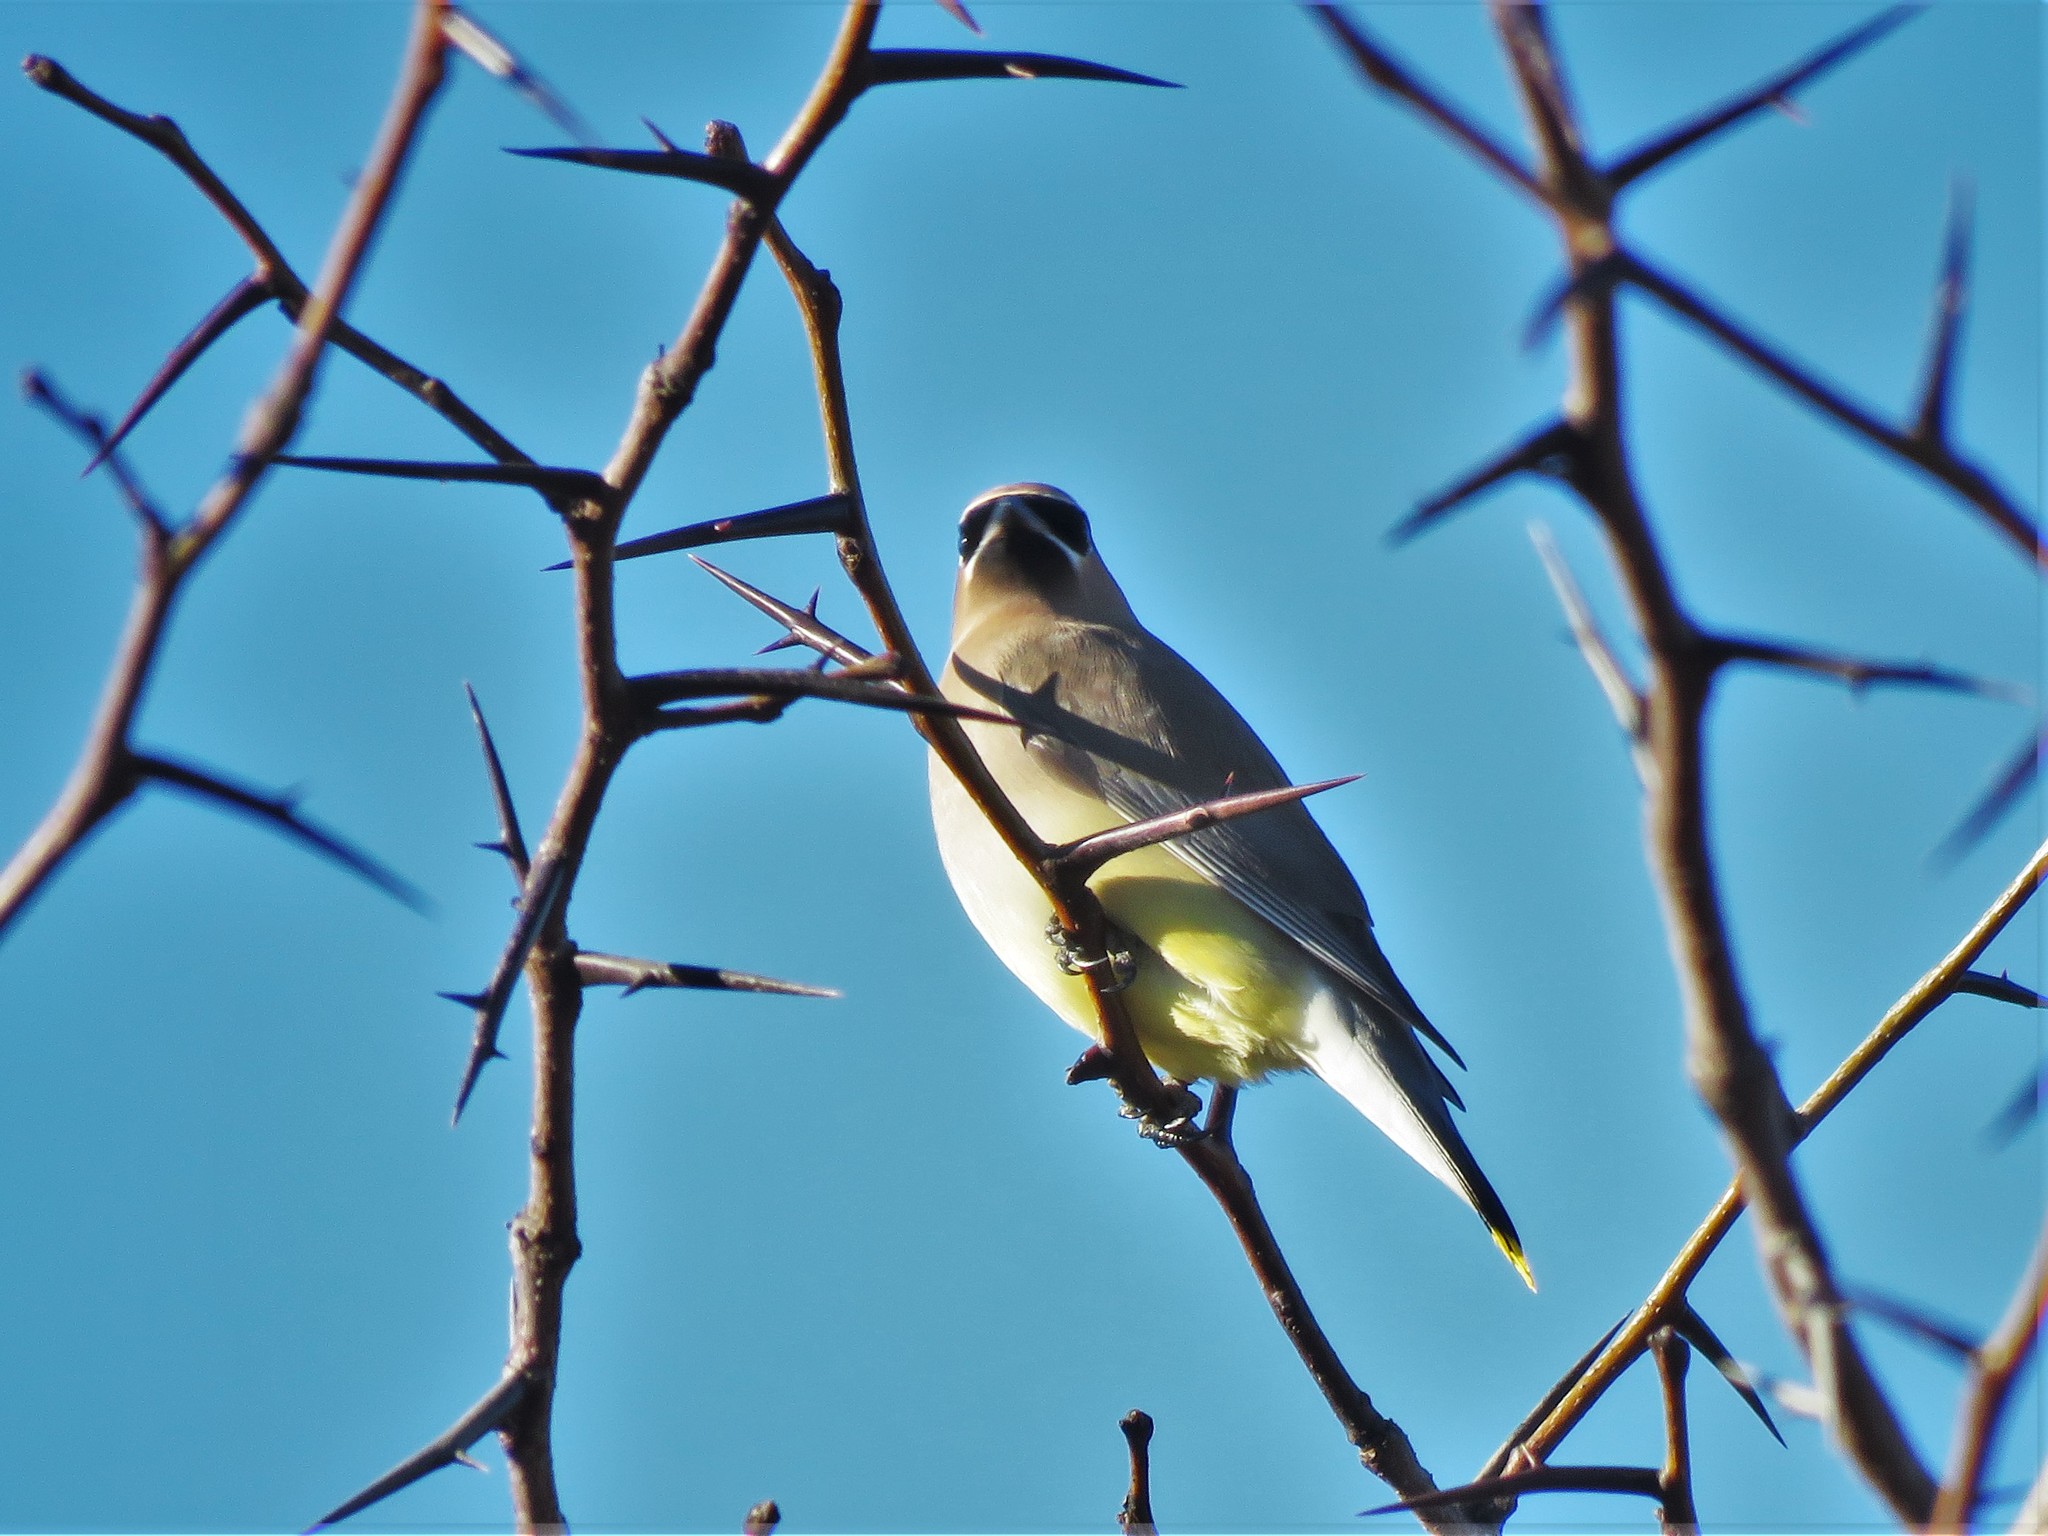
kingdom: Animalia
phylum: Chordata
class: Aves
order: Passeriformes
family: Bombycillidae
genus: Bombycilla
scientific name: Bombycilla cedrorum
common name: Cedar waxwing
